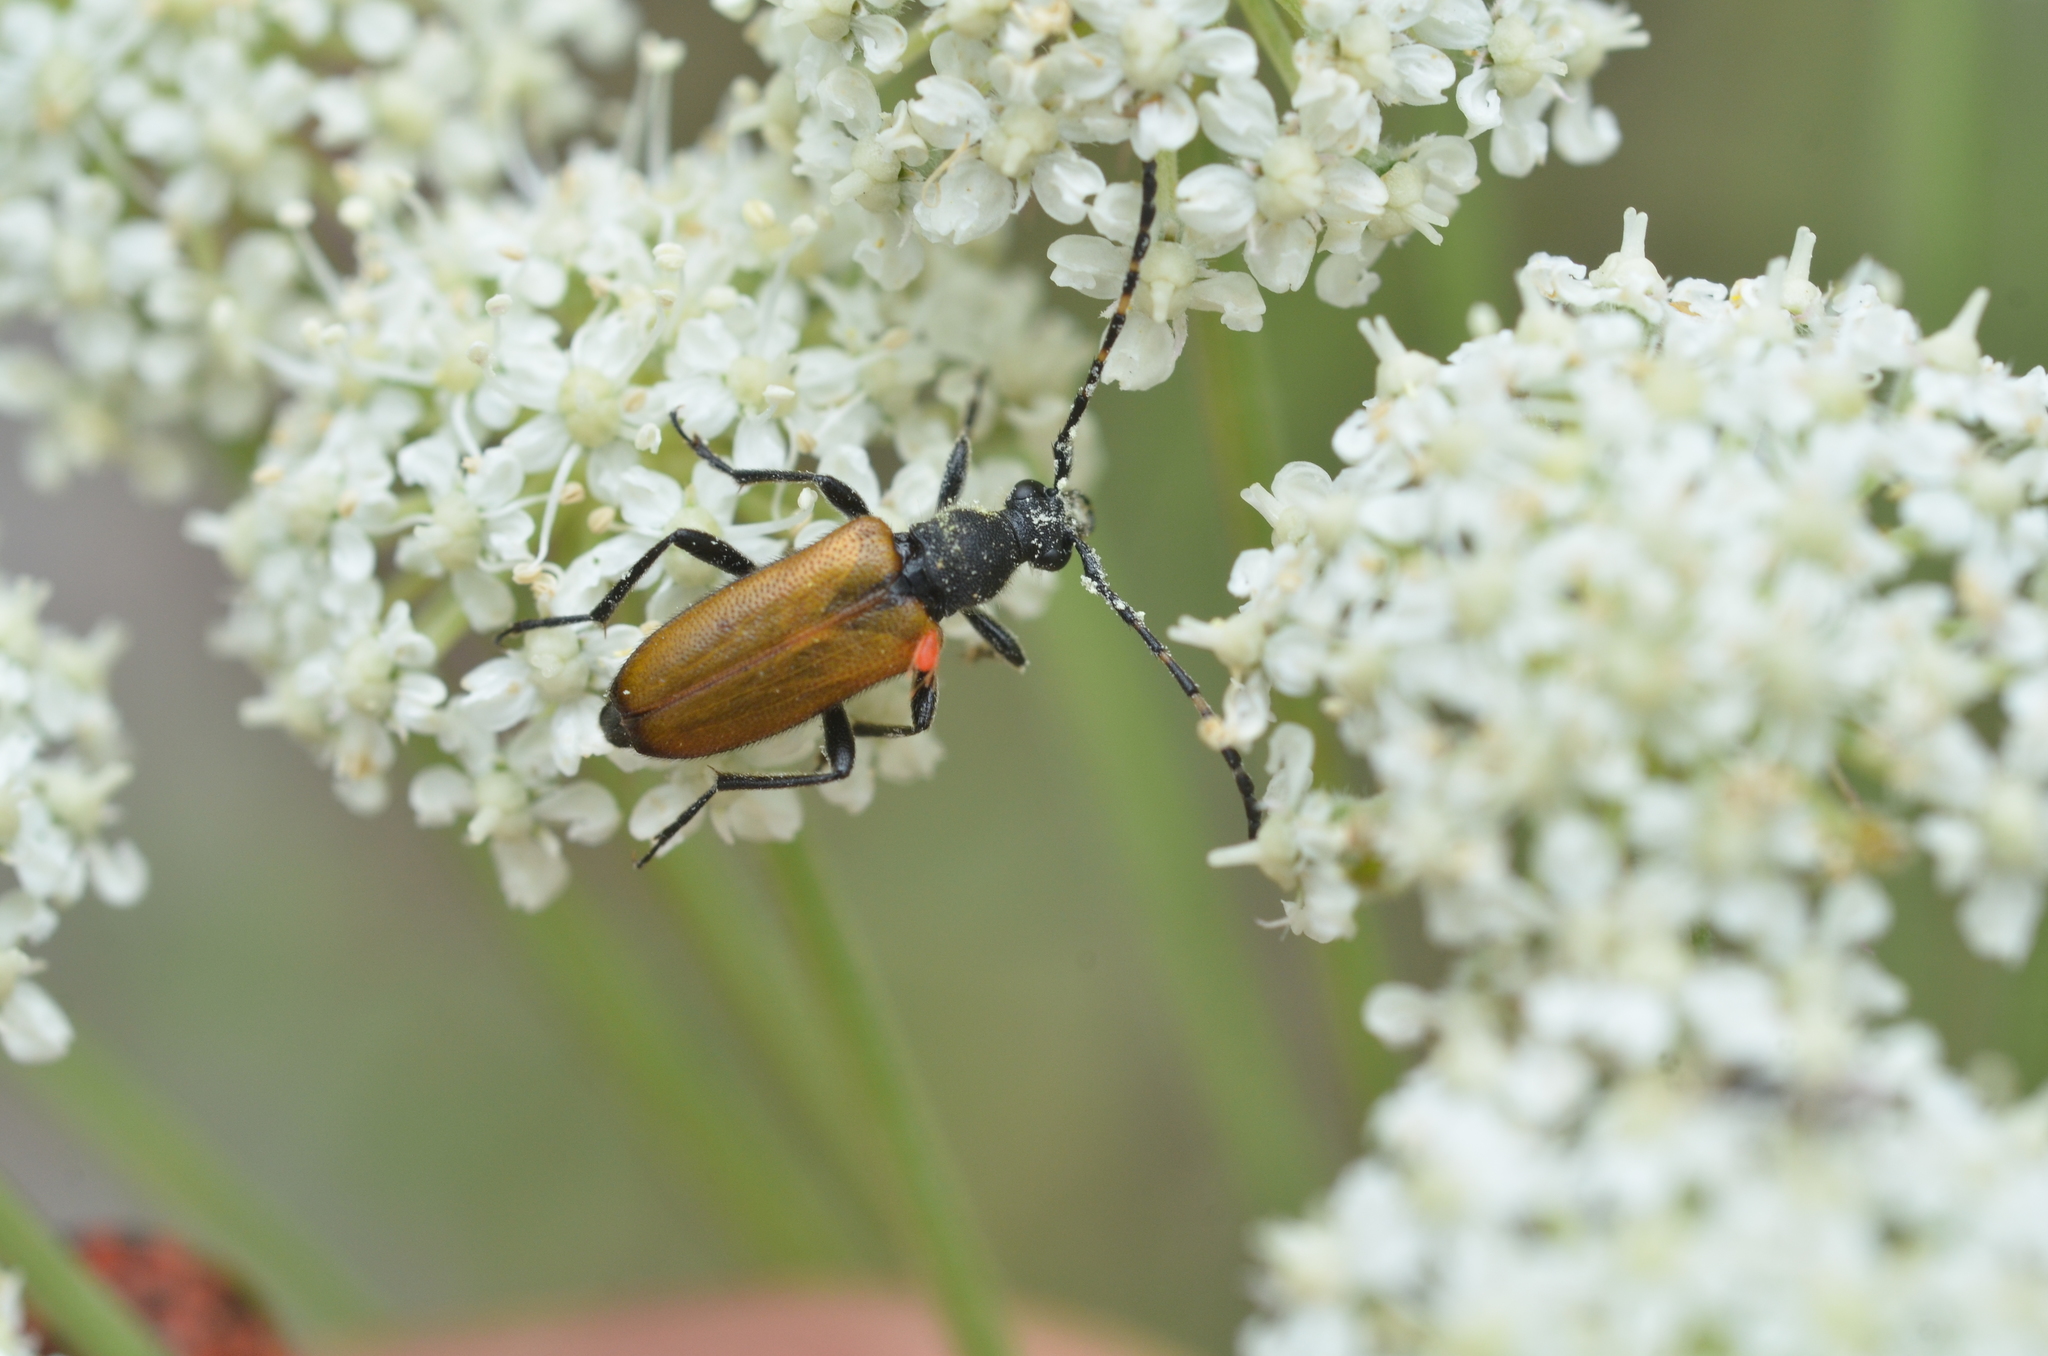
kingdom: Animalia
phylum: Arthropoda
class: Insecta
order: Coleoptera
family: Cerambycidae
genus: Paracorymbia
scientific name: Paracorymbia maculicornis
